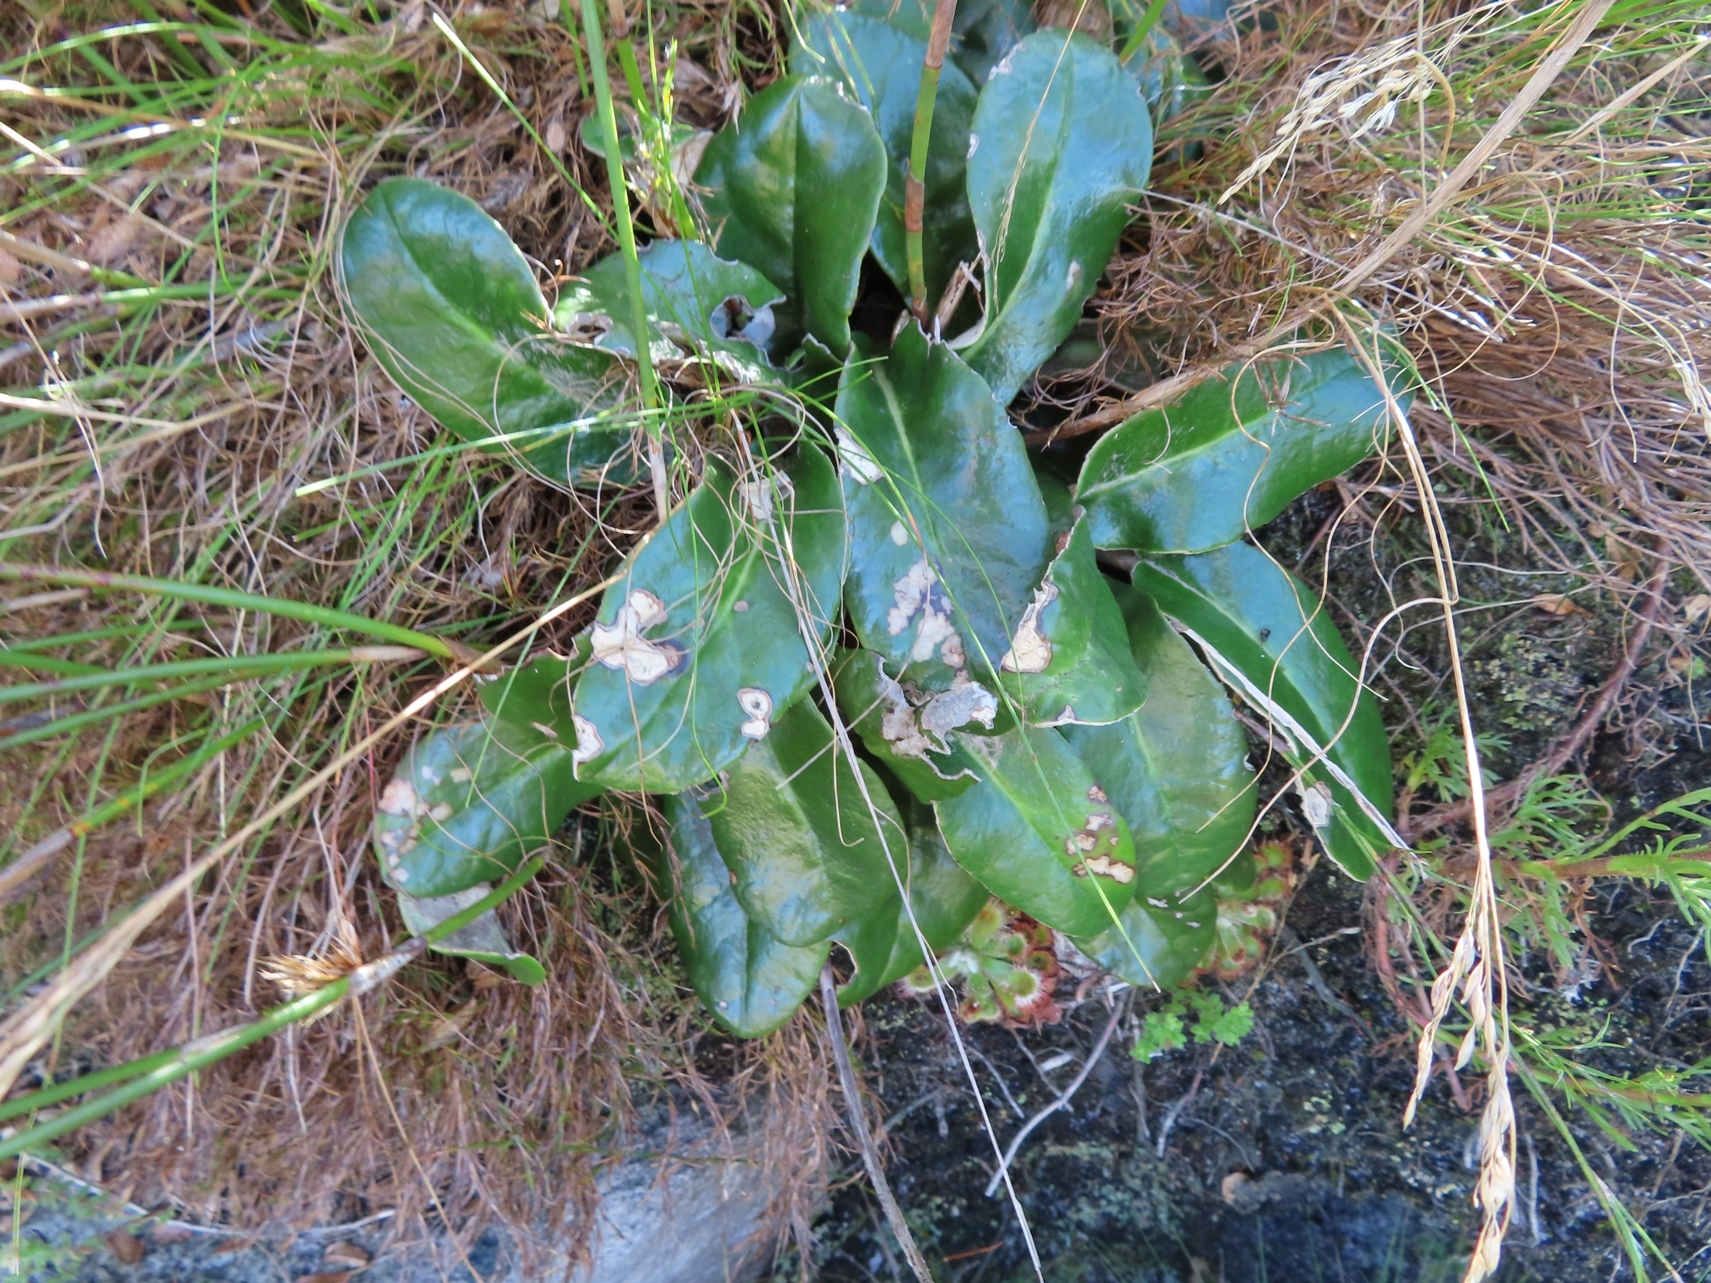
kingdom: Plantae
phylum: Tracheophyta
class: Magnoliopsida
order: Asterales
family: Asteraceae
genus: Gerbera
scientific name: Gerbera tomentosa
